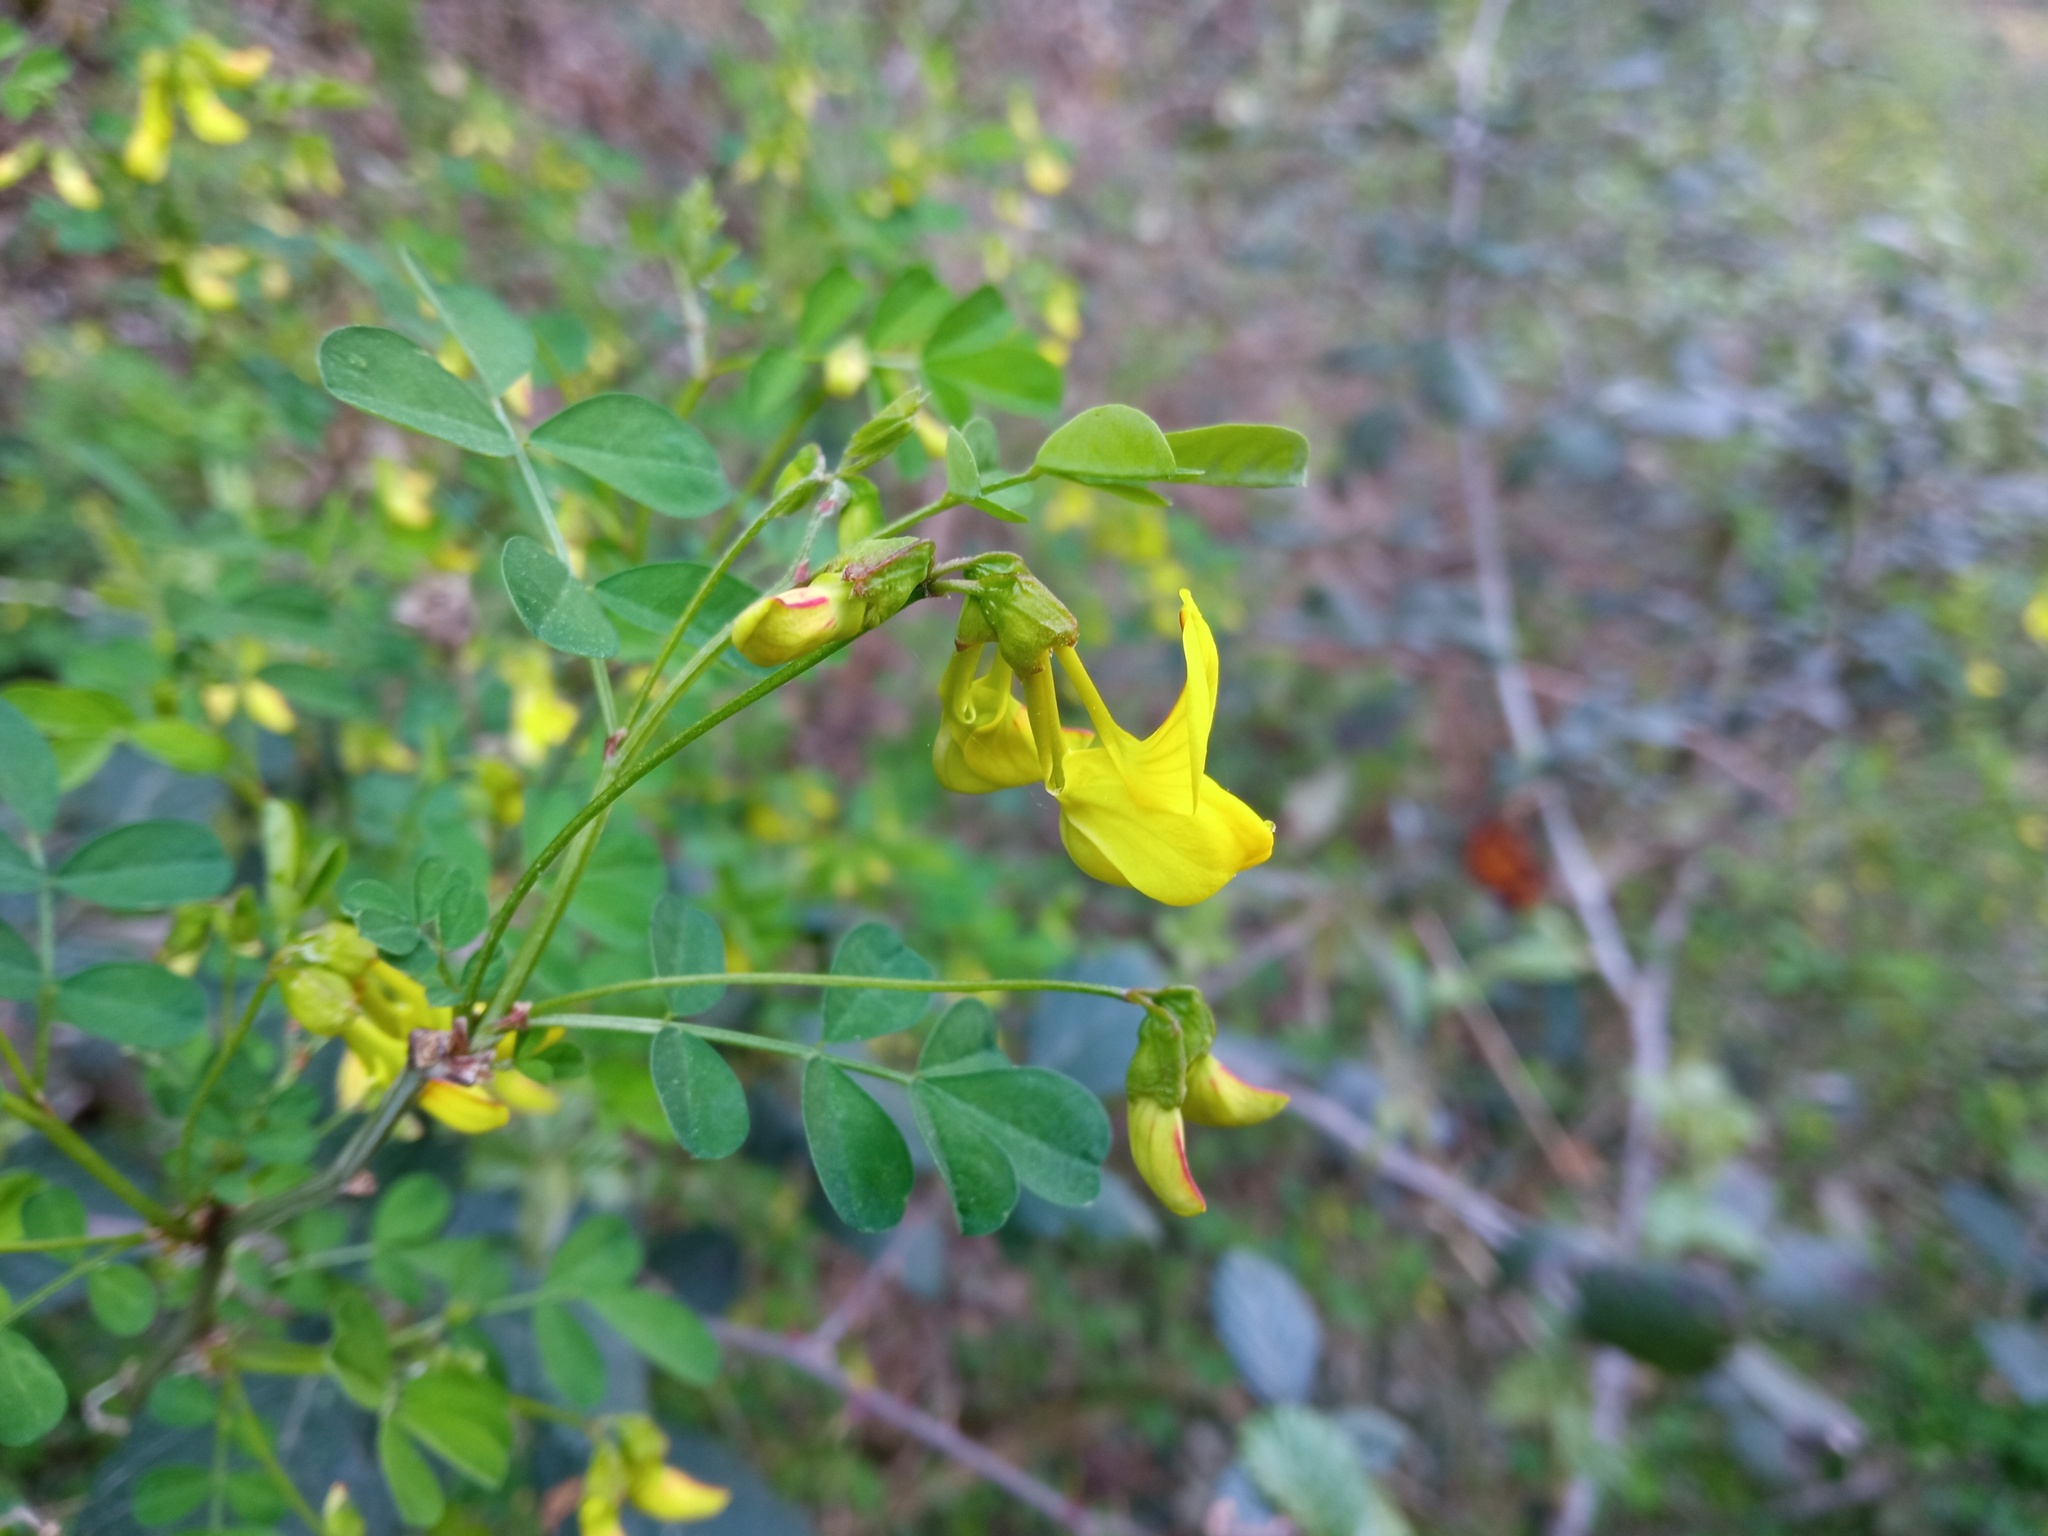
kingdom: Plantae
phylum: Tracheophyta
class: Magnoliopsida
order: Fabales
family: Fabaceae
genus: Hippocrepis
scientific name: Hippocrepis emerus
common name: Scorpion senna
